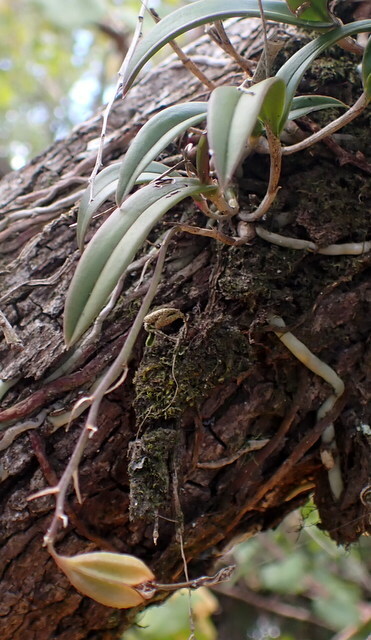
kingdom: Plantae
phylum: Tracheophyta
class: Liliopsida
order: Asparagales
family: Orchidaceae
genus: Epidendrum
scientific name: Epidendrum conopseum
